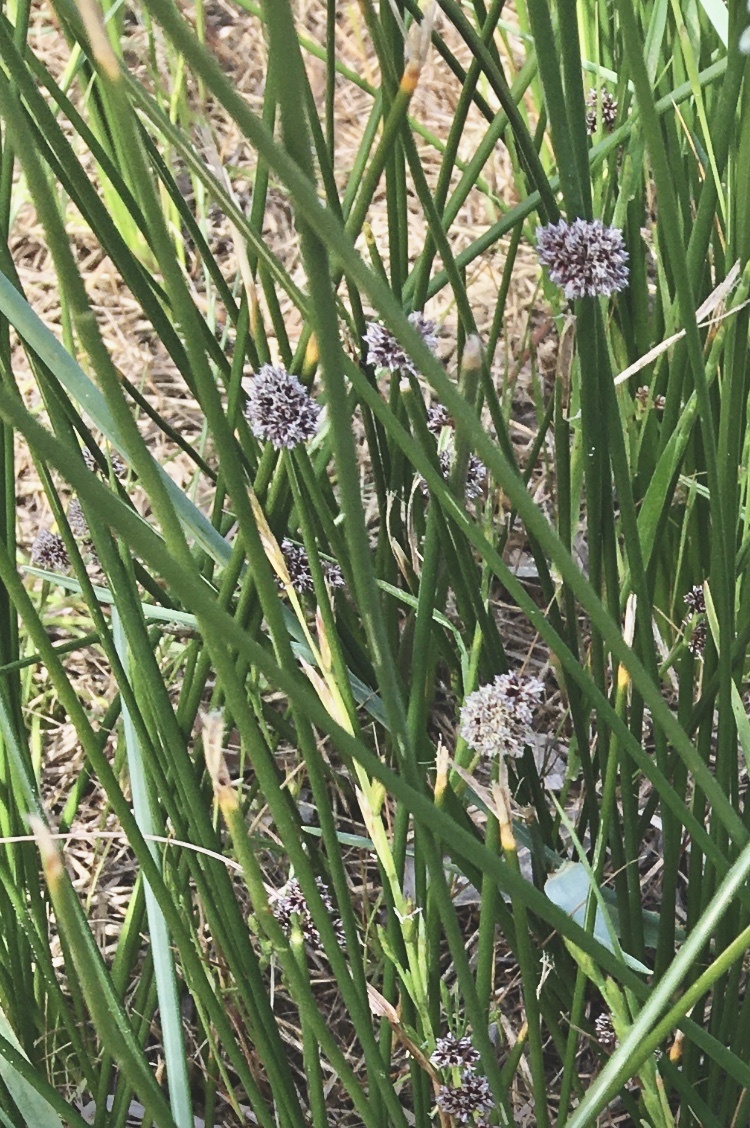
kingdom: Plantae
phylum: Tracheophyta
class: Liliopsida
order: Poales
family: Cyperaceae
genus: Ficinia
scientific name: Ficinia nodosa
